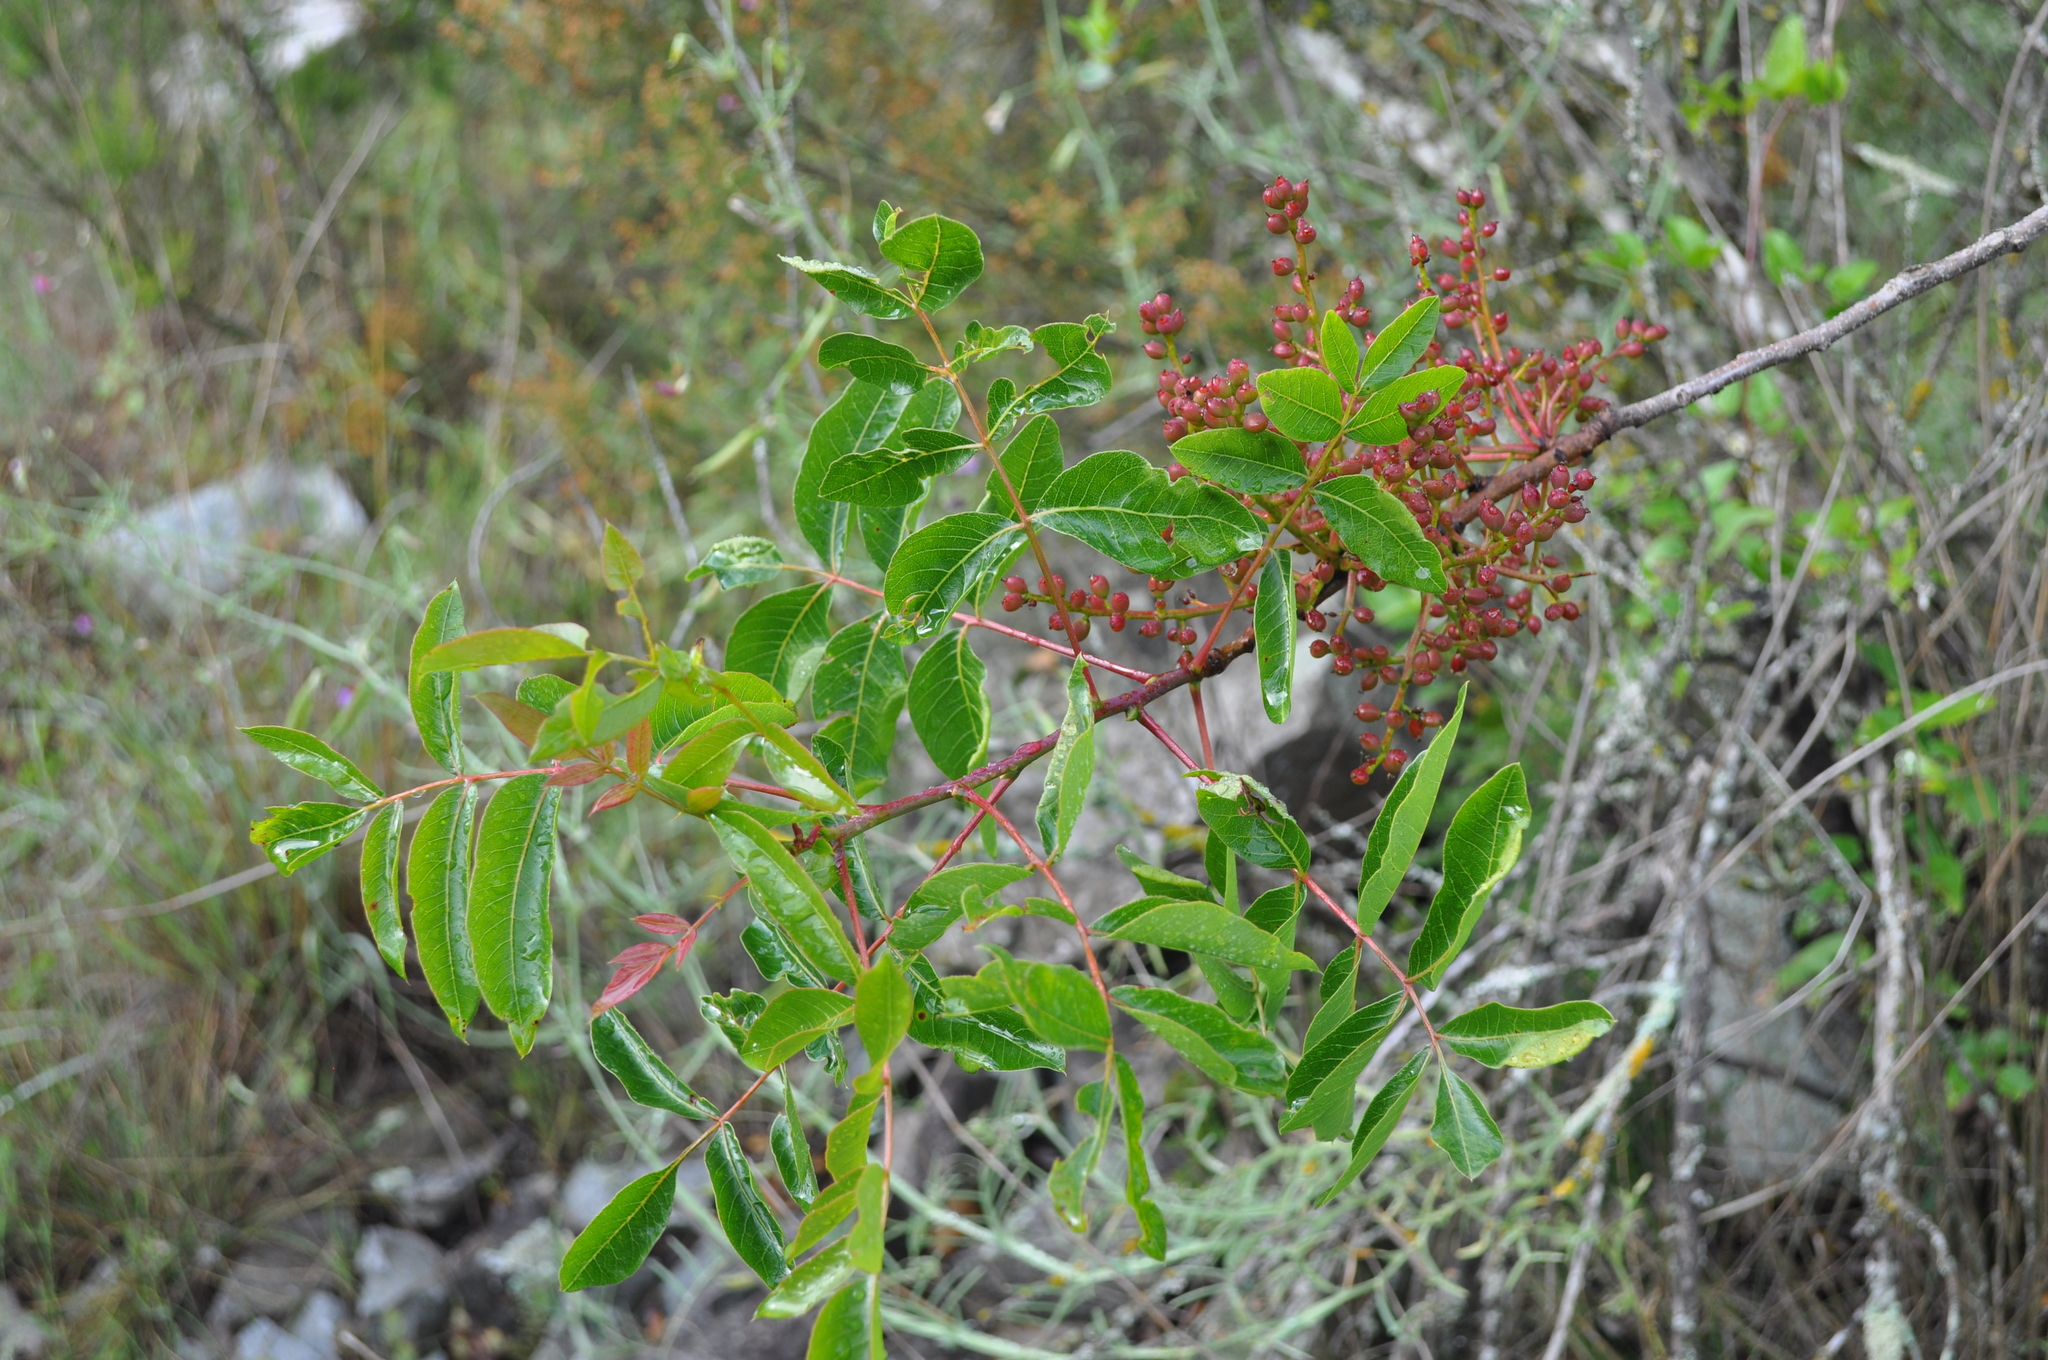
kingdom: Plantae
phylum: Tracheophyta
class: Magnoliopsida
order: Sapindales
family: Anacardiaceae
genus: Pistacia
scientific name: Pistacia terebinthus
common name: Terebinth
